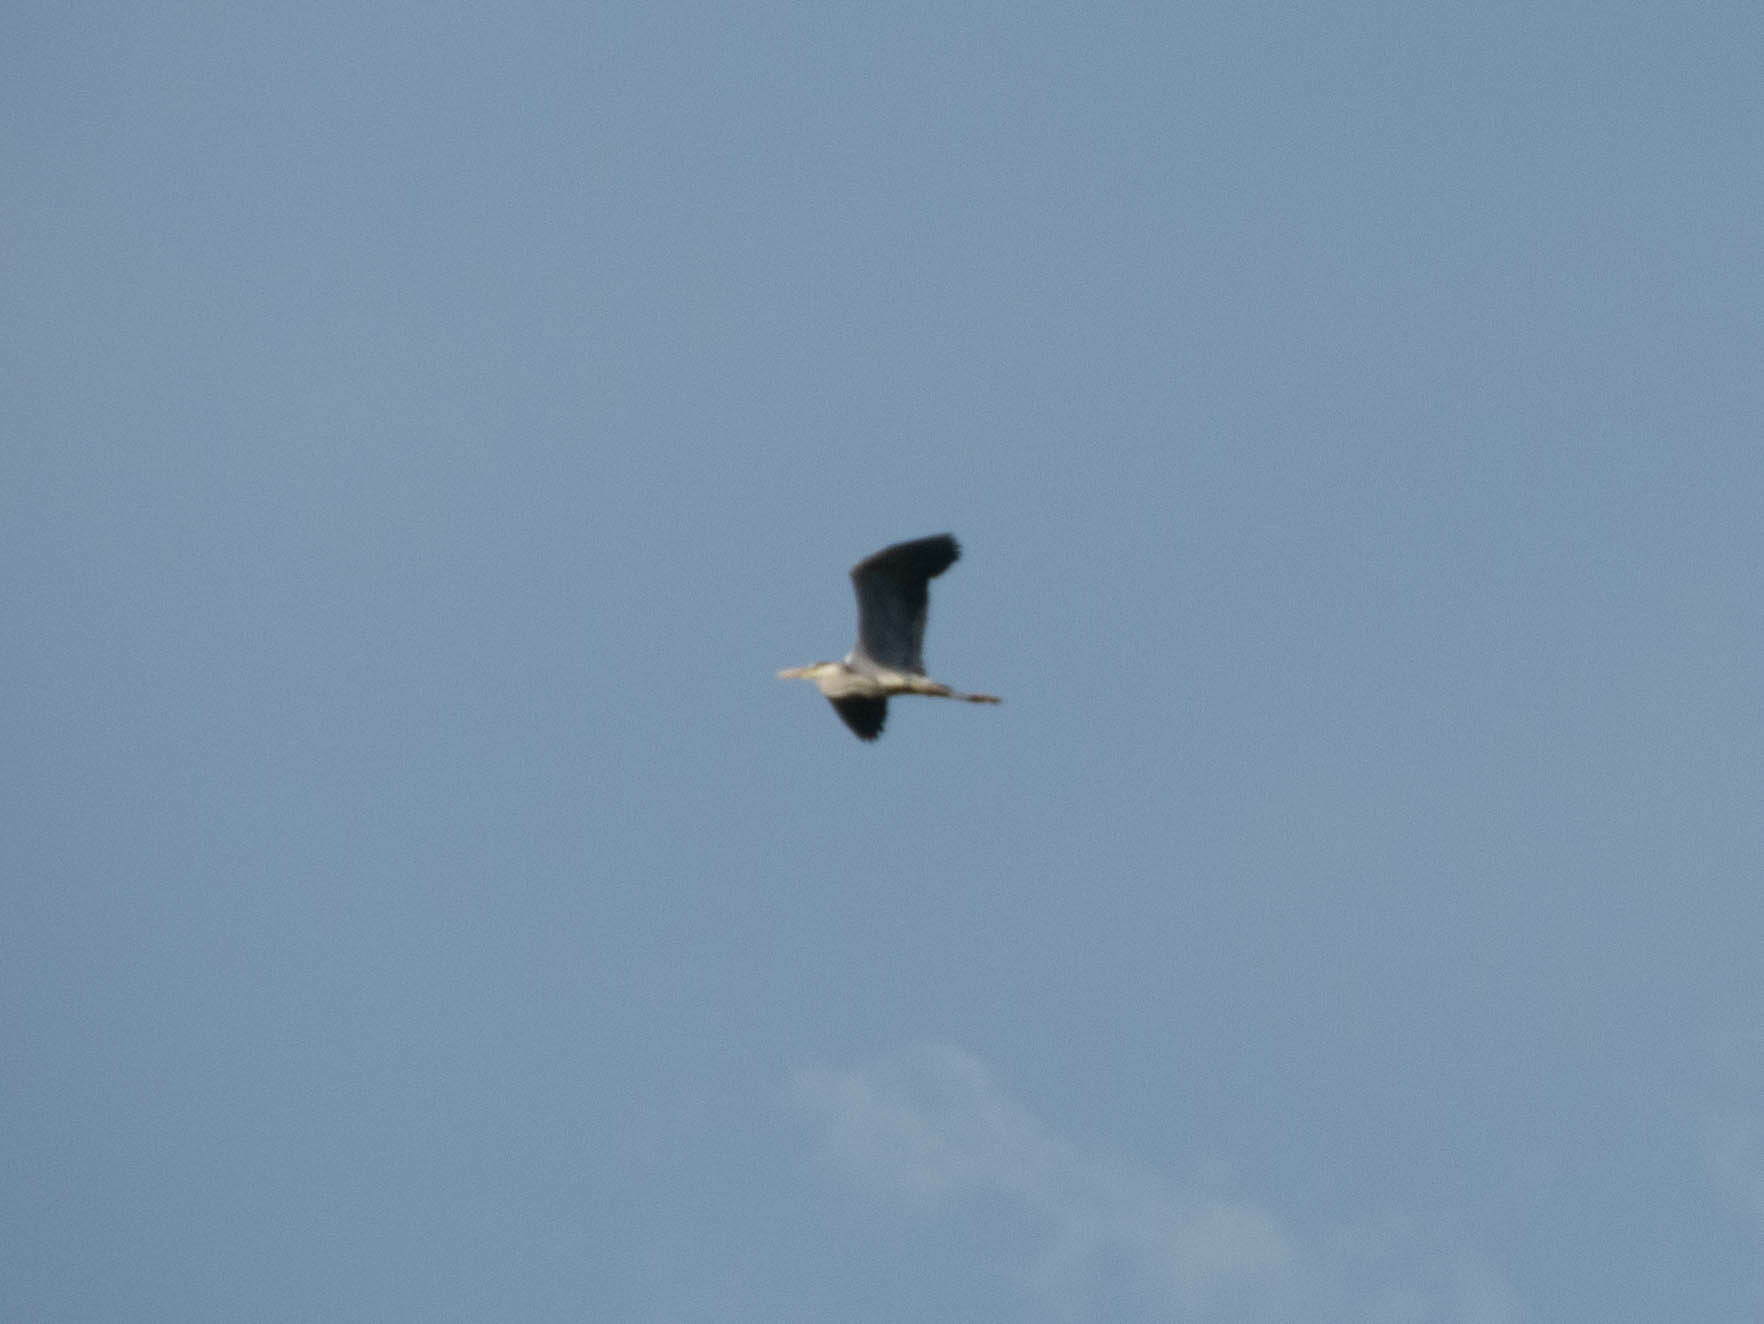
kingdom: Animalia
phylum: Chordata
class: Aves
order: Pelecaniformes
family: Ardeidae
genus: Ardea
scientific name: Ardea cinerea
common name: Grey heron
